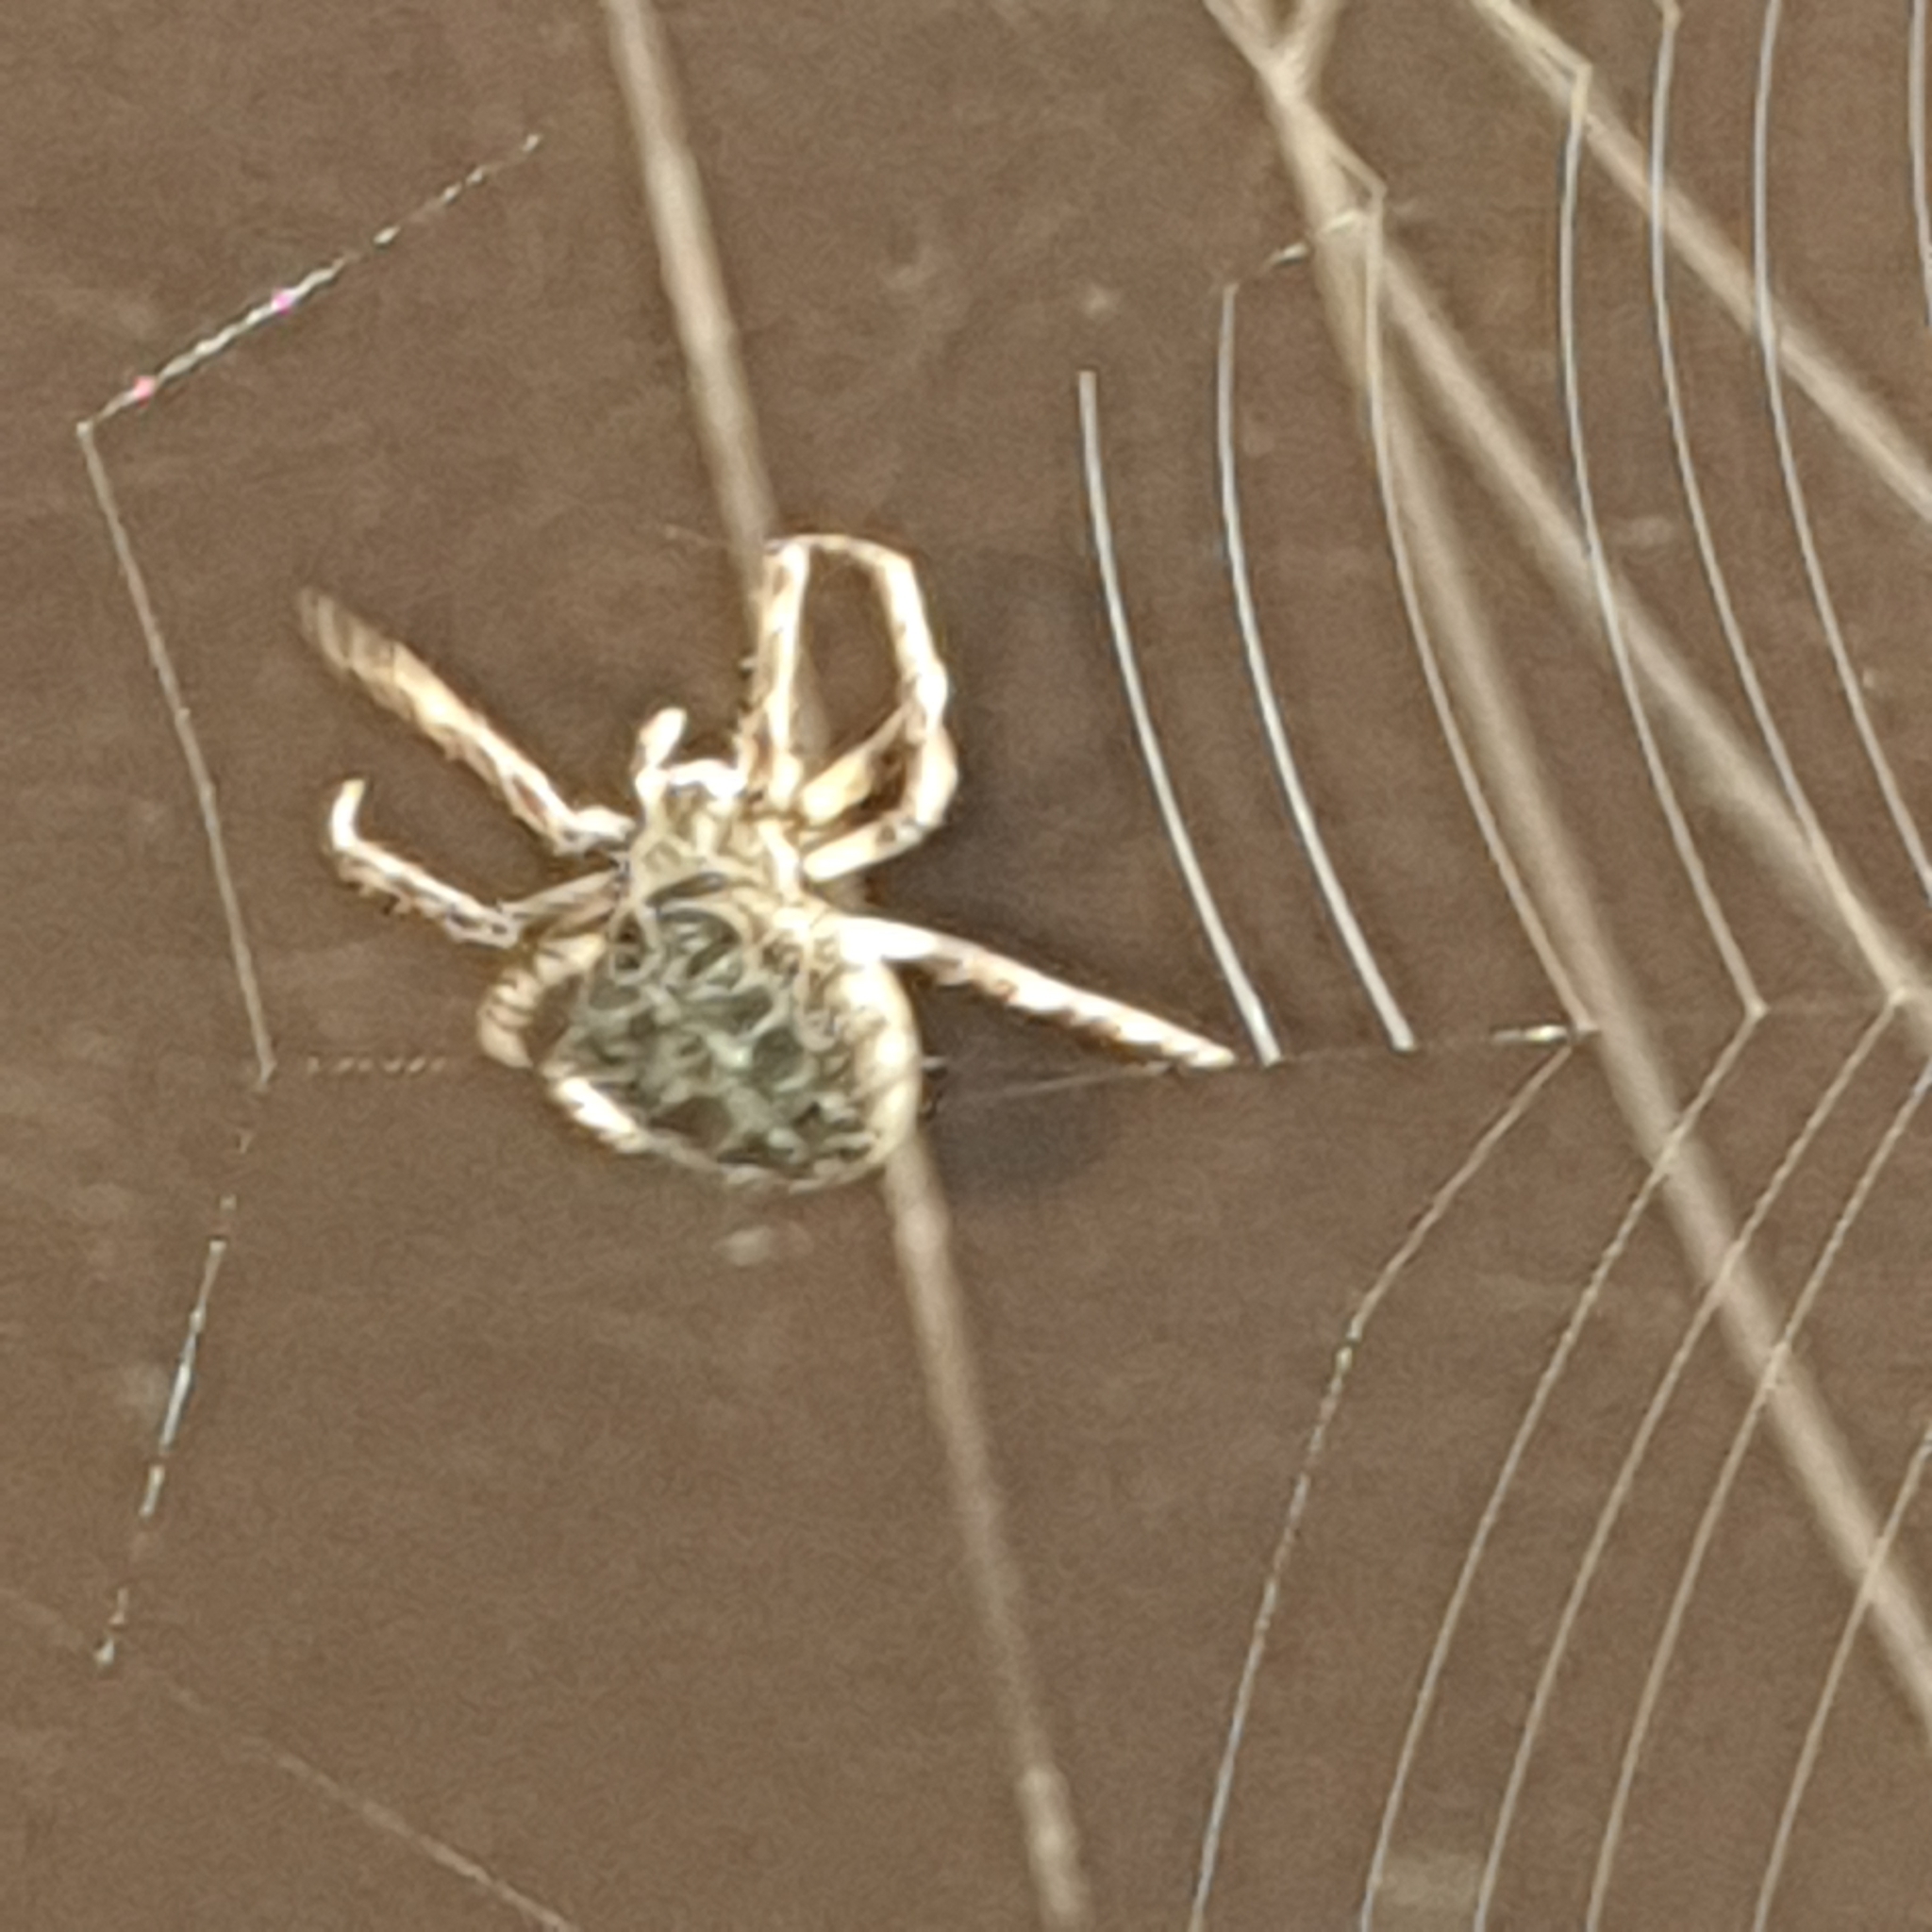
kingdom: Animalia
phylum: Arthropoda
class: Arachnida
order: Araneae
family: Araneidae
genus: Larinioides
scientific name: Larinioides sclopetarius
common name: Bridge orbweaver
